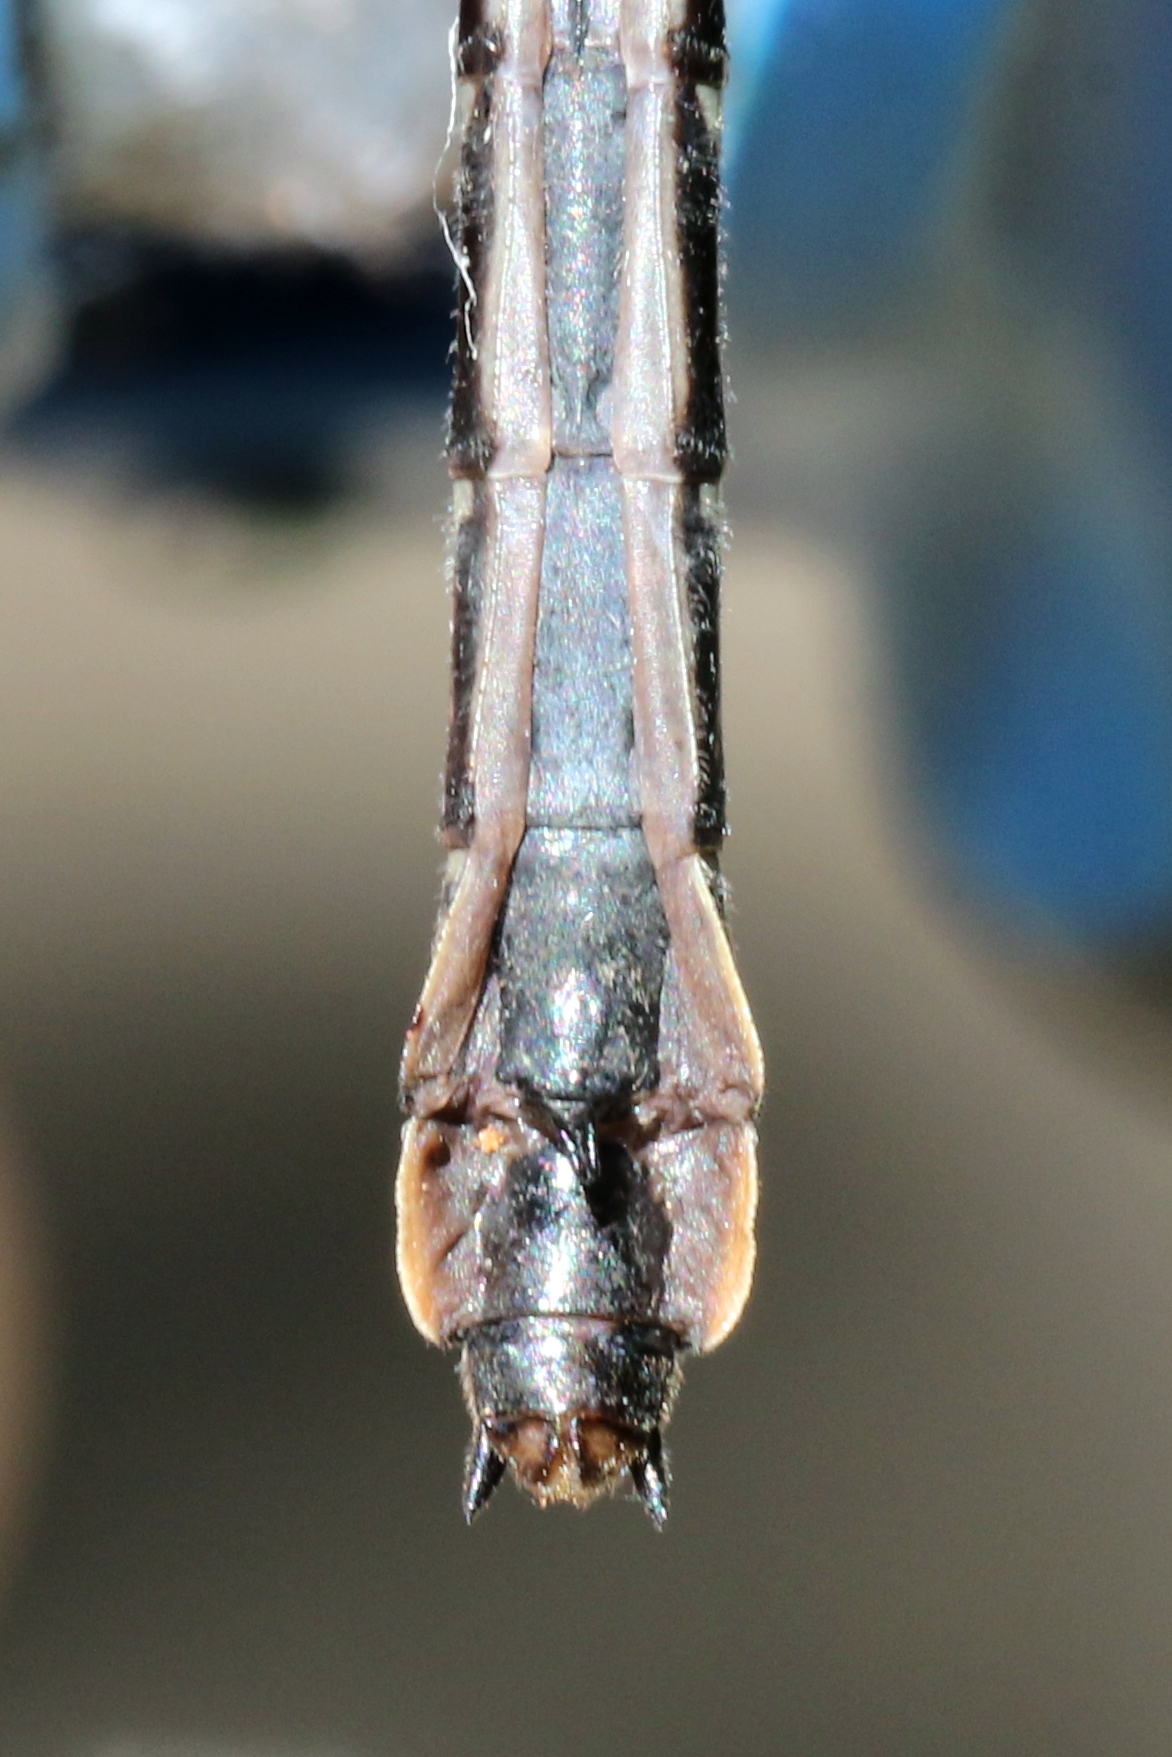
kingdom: Animalia
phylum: Arthropoda
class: Insecta
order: Odonata
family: Gomphidae
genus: Hylogomphus
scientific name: Hylogomphus adelphus
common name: Mustached clubtail
